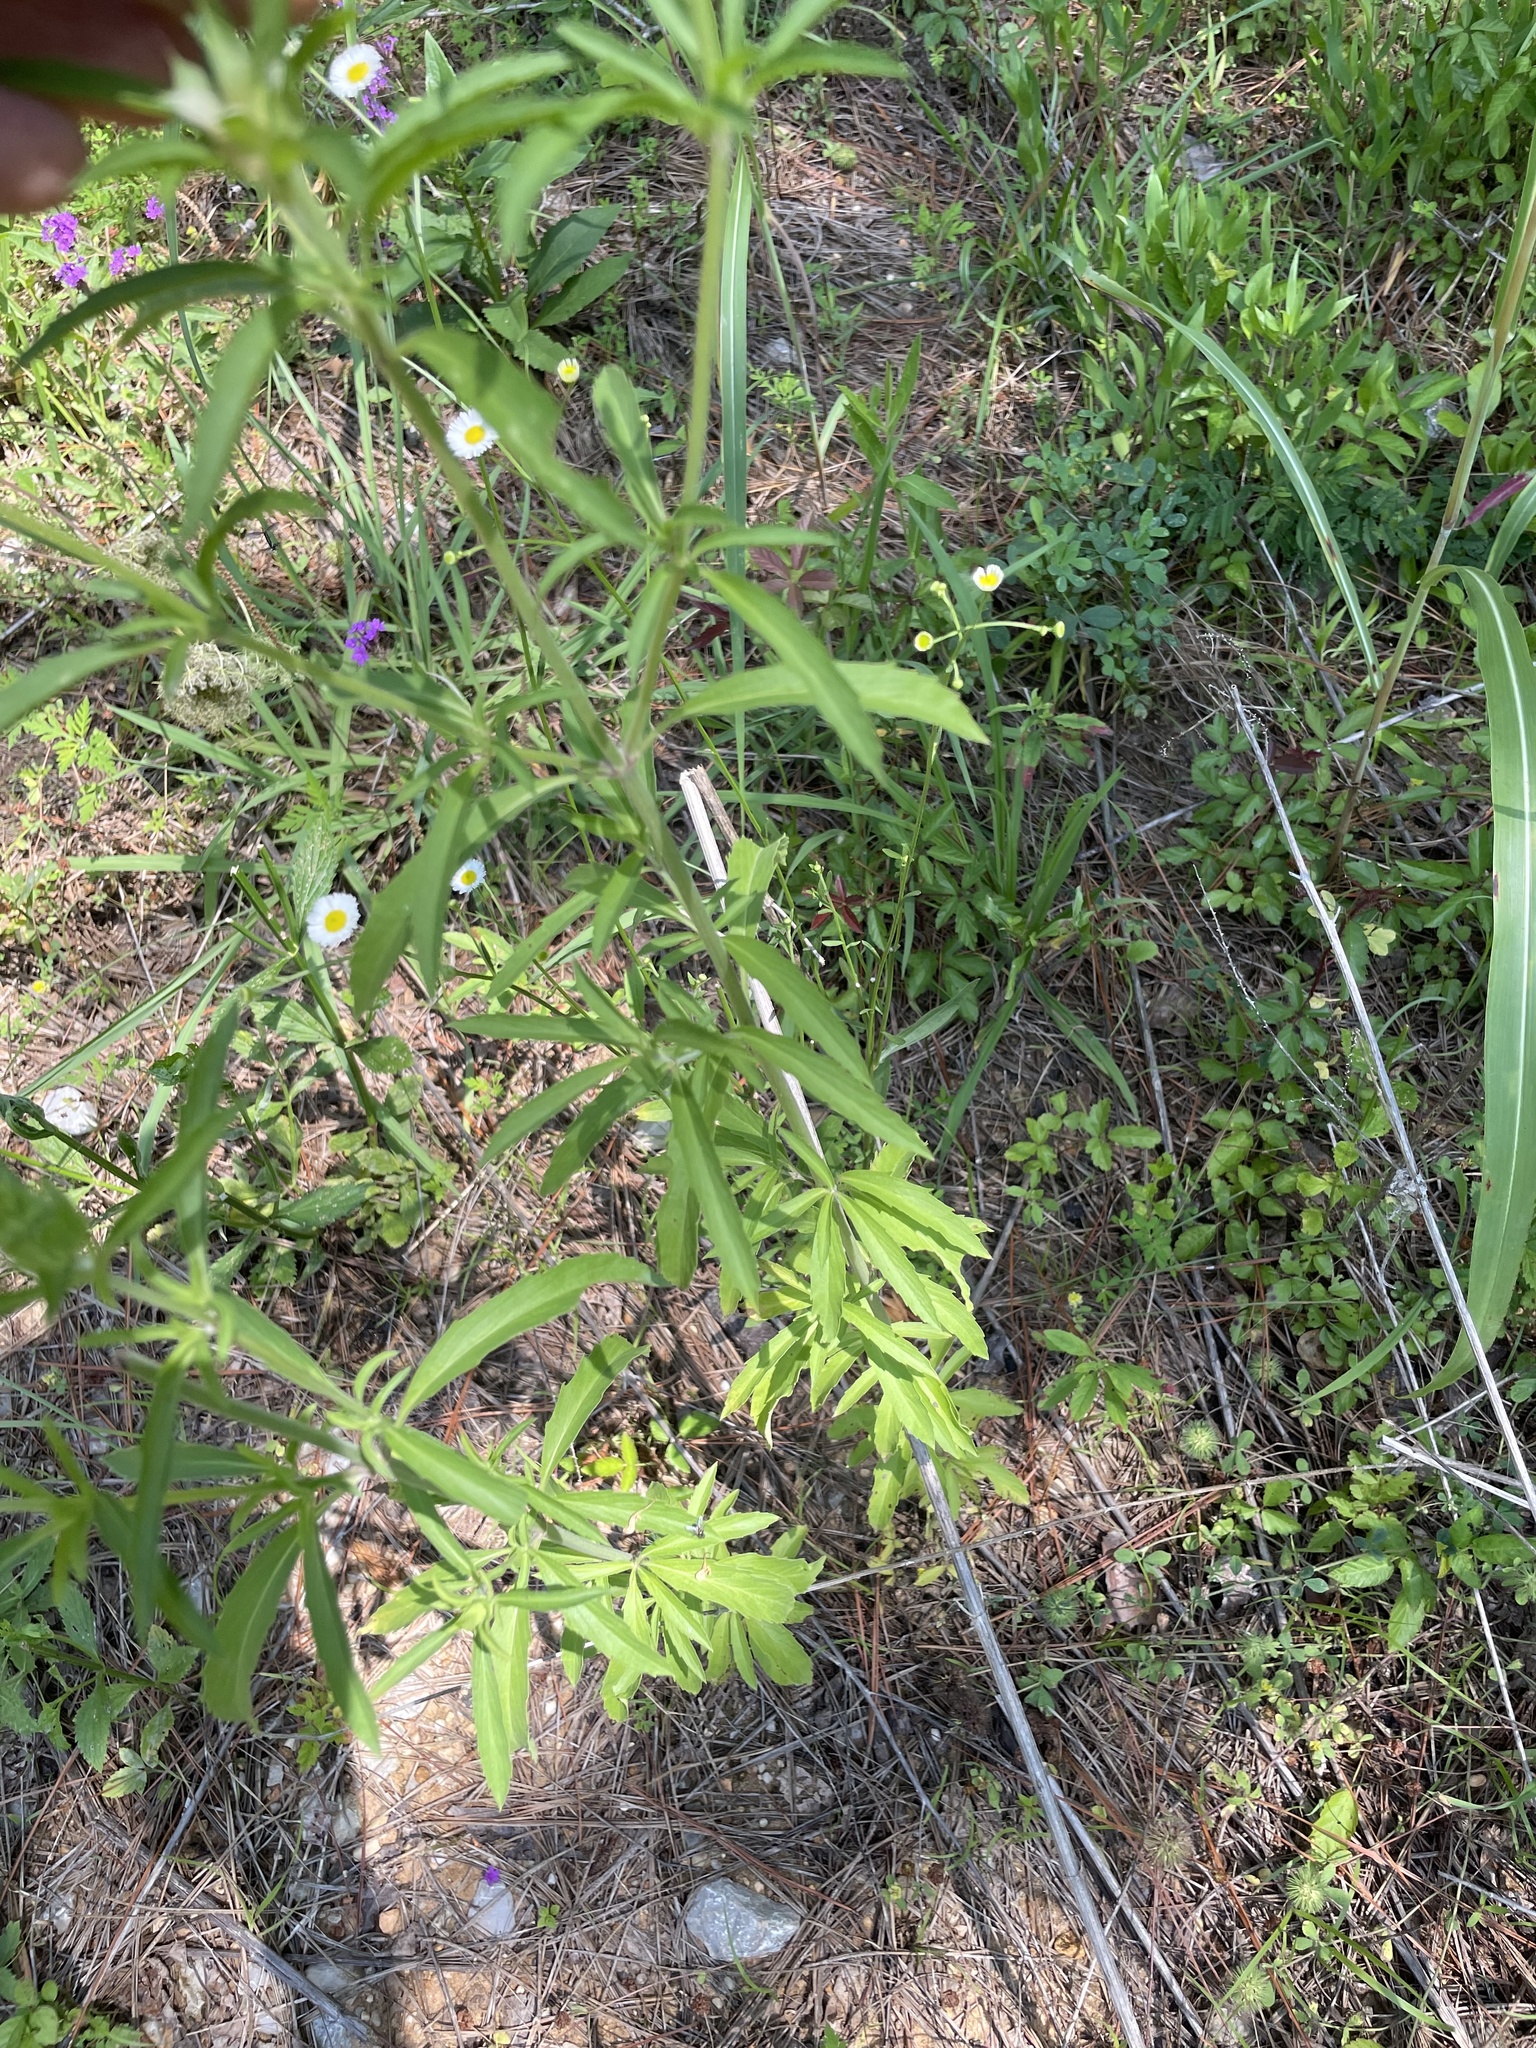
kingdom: Plantae
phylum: Tracheophyta
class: Magnoliopsida
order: Lamiales
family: Lamiaceae
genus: Monarda
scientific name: Monarda citriodora
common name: Lemon beebalm
